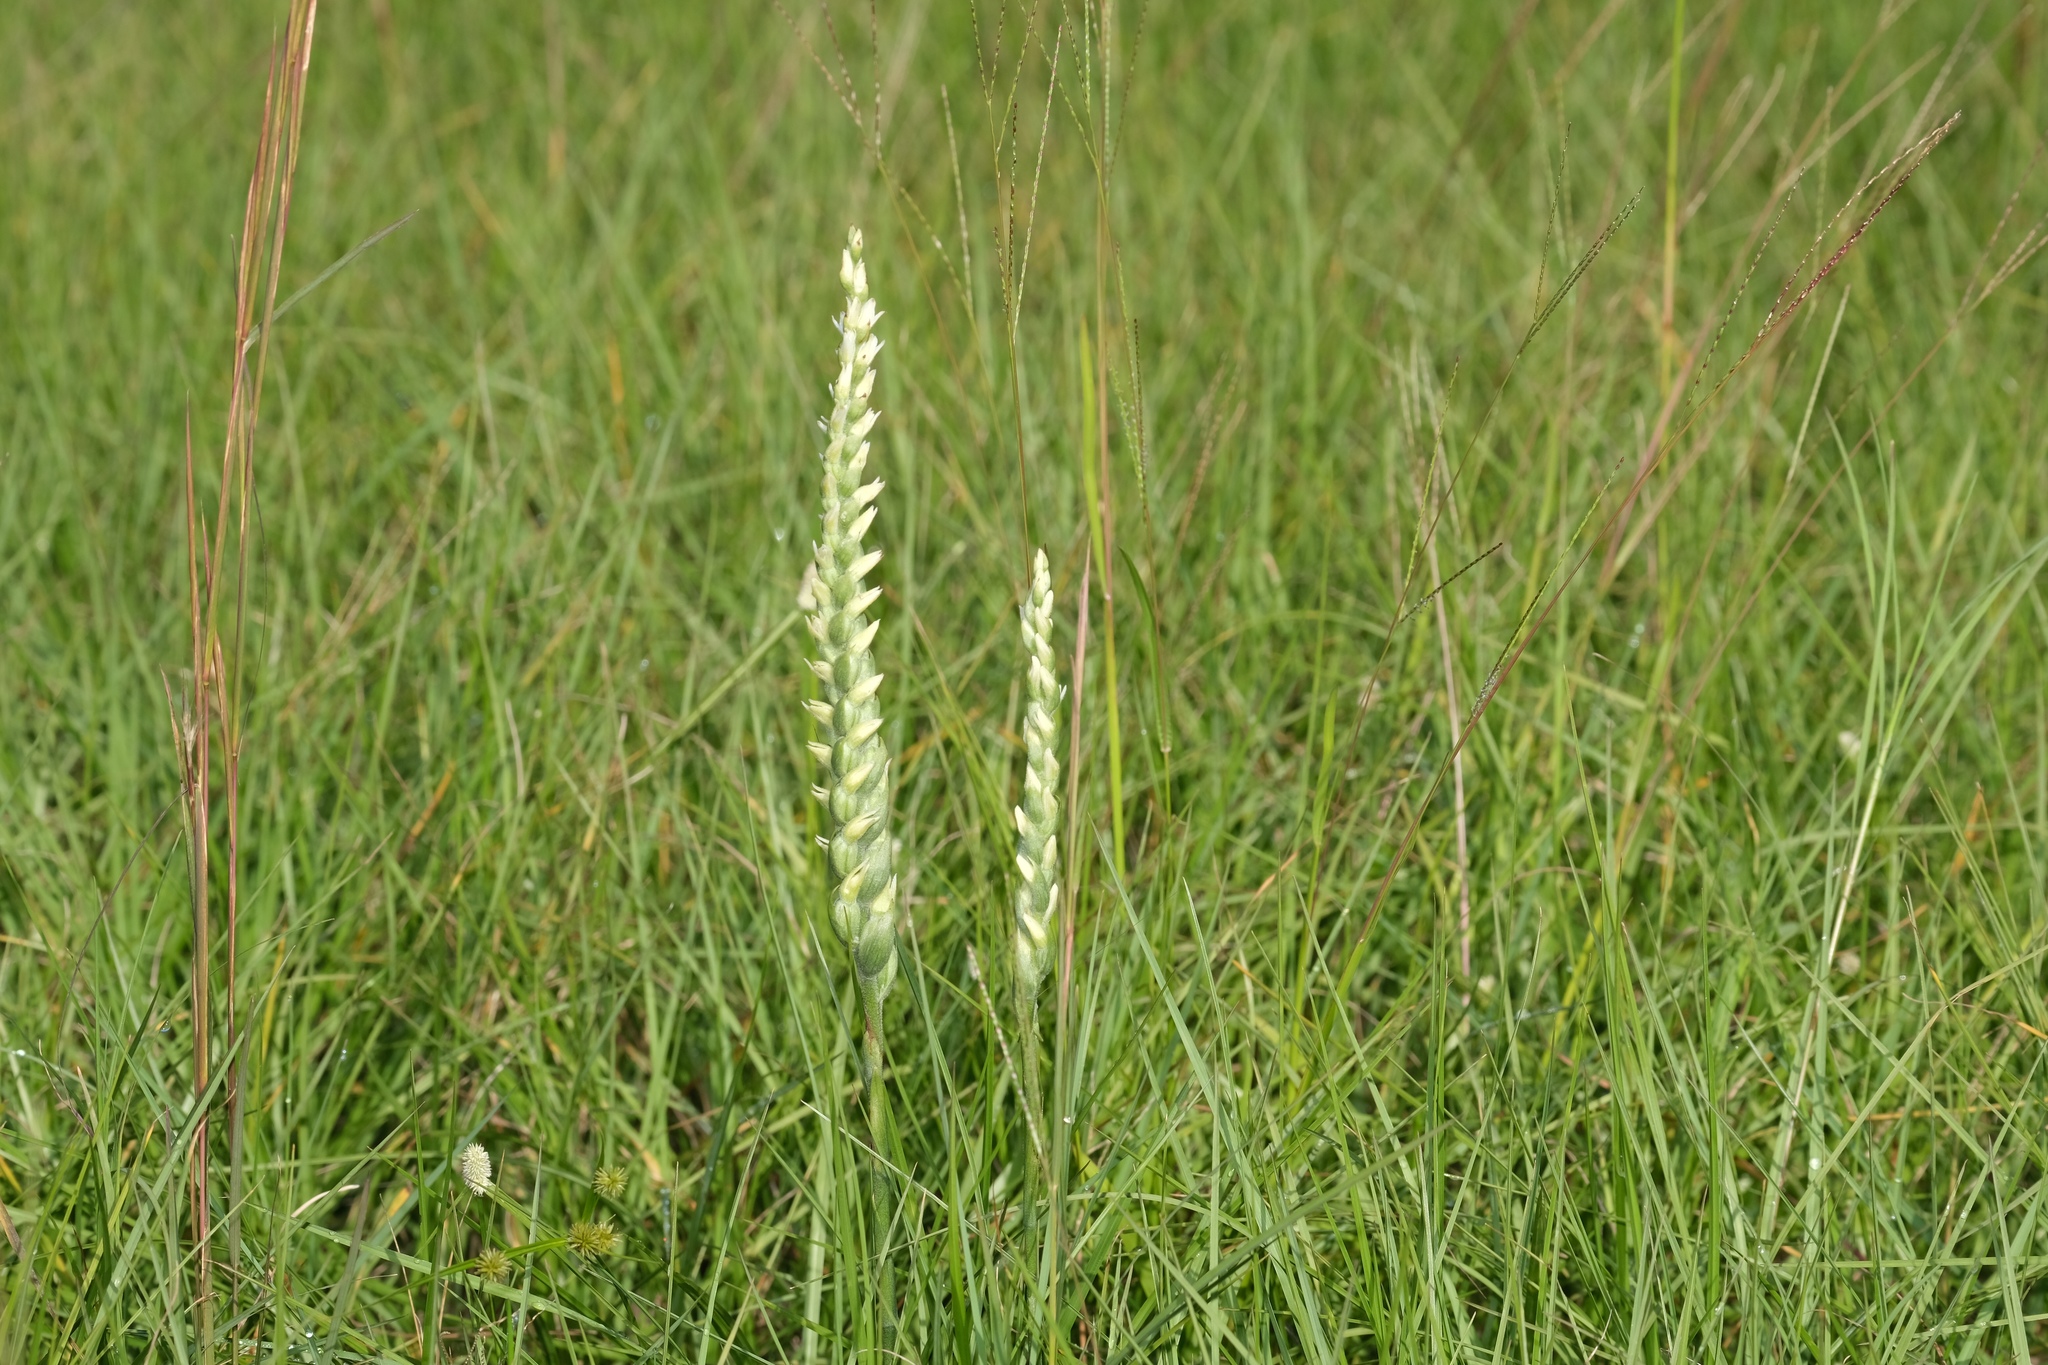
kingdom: Plantae
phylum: Tracheophyta
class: Liliopsida
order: Asparagales
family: Orchidaceae
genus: Spiranthes
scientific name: Spiranthes cernua
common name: Dropping ladies'-tresses
